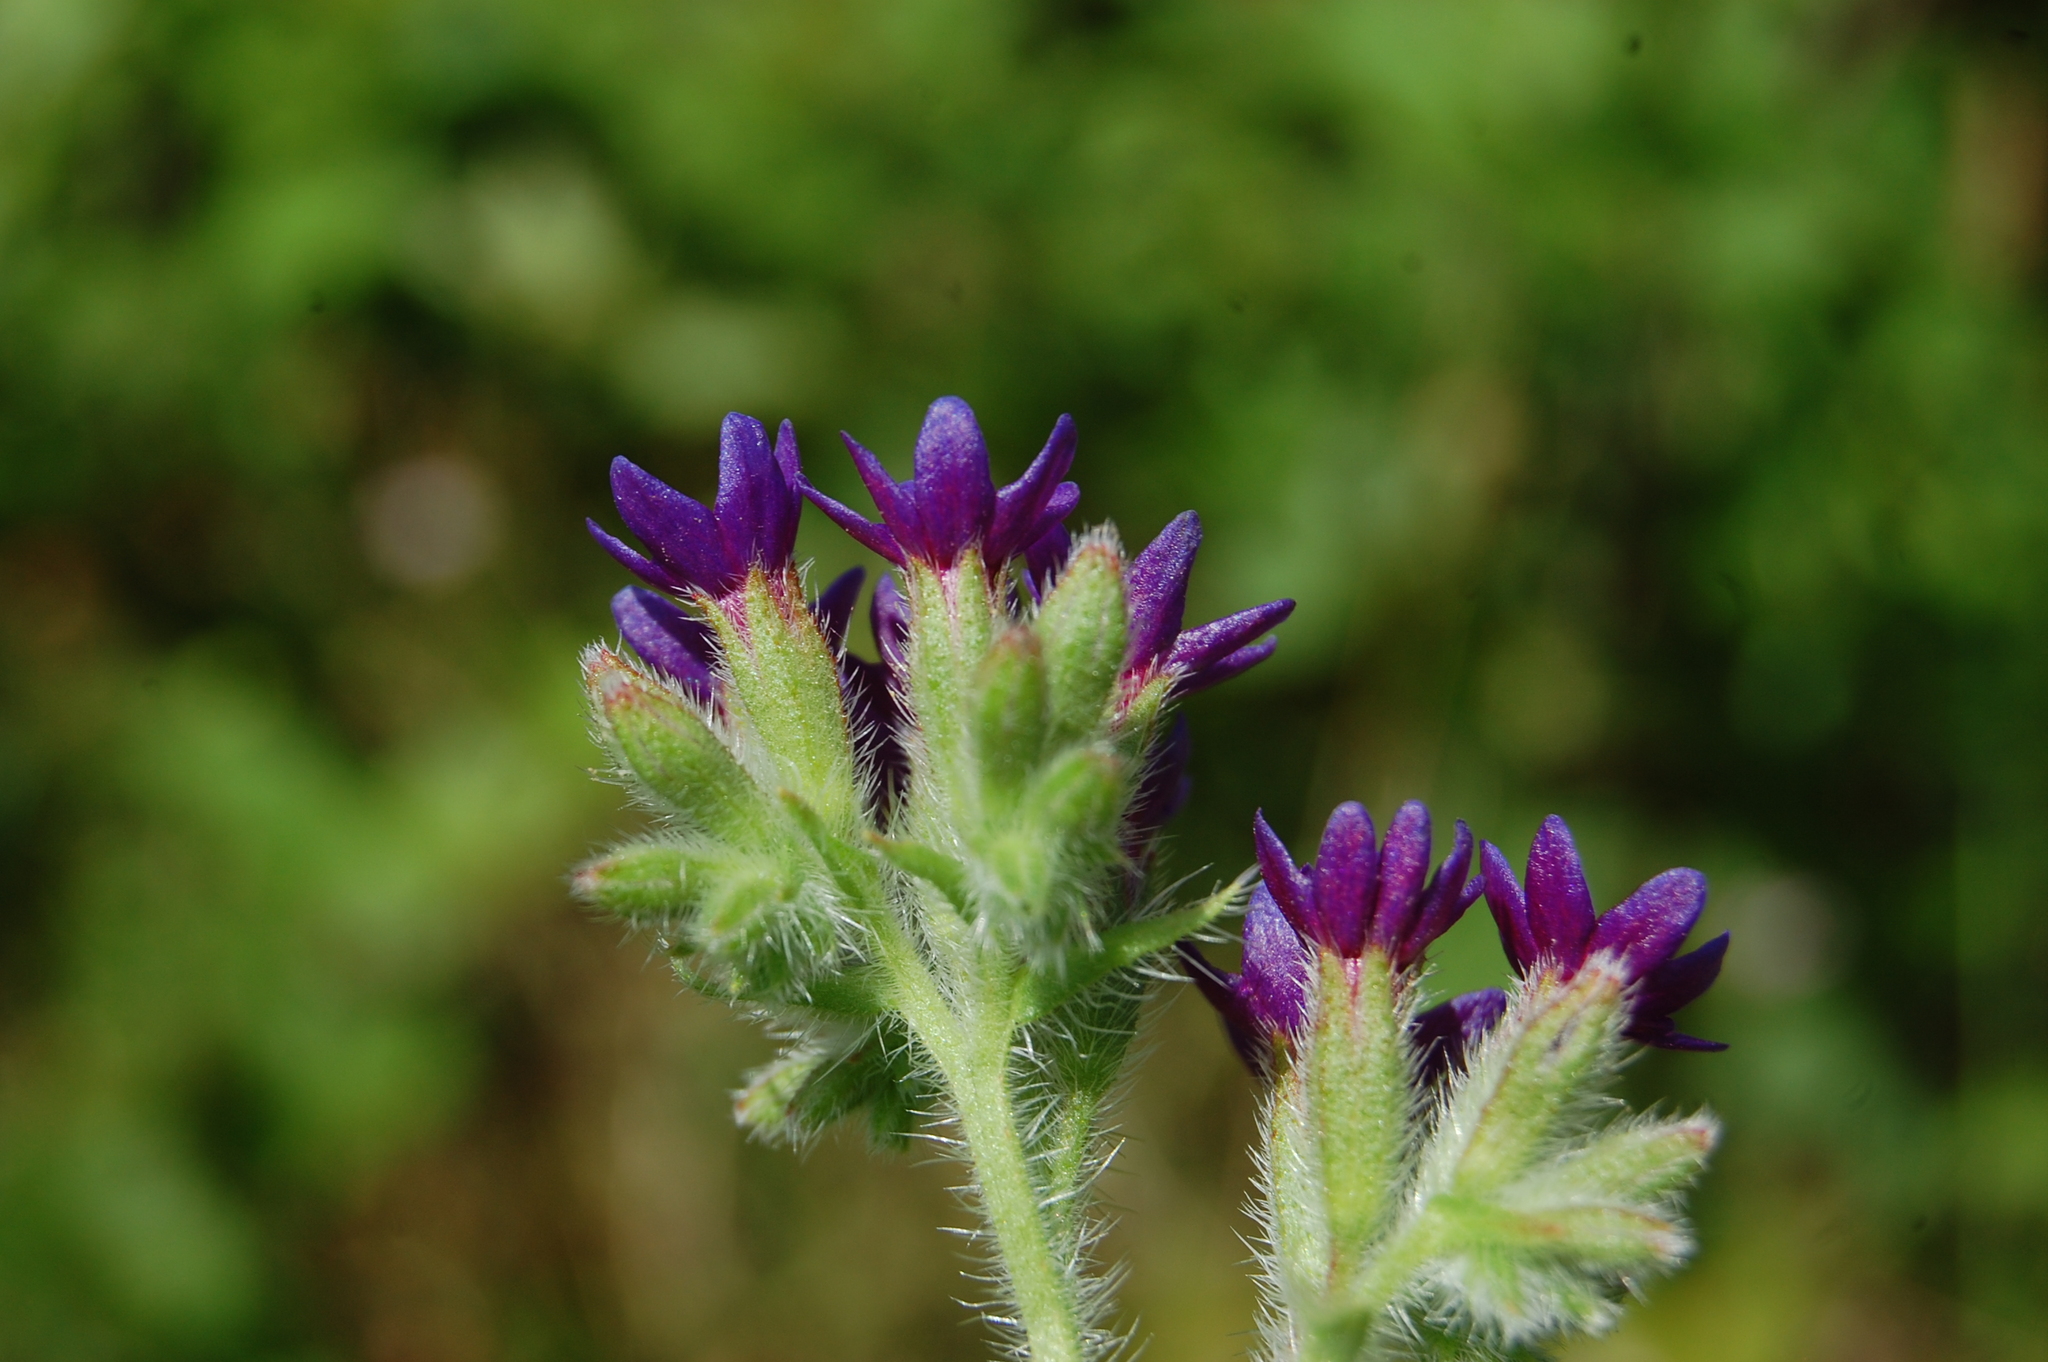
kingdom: Plantae
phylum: Tracheophyta
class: Magnoliopsida
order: Boraginales
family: Boraginaceae
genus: Anchusa
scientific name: Anchusa hybrida
